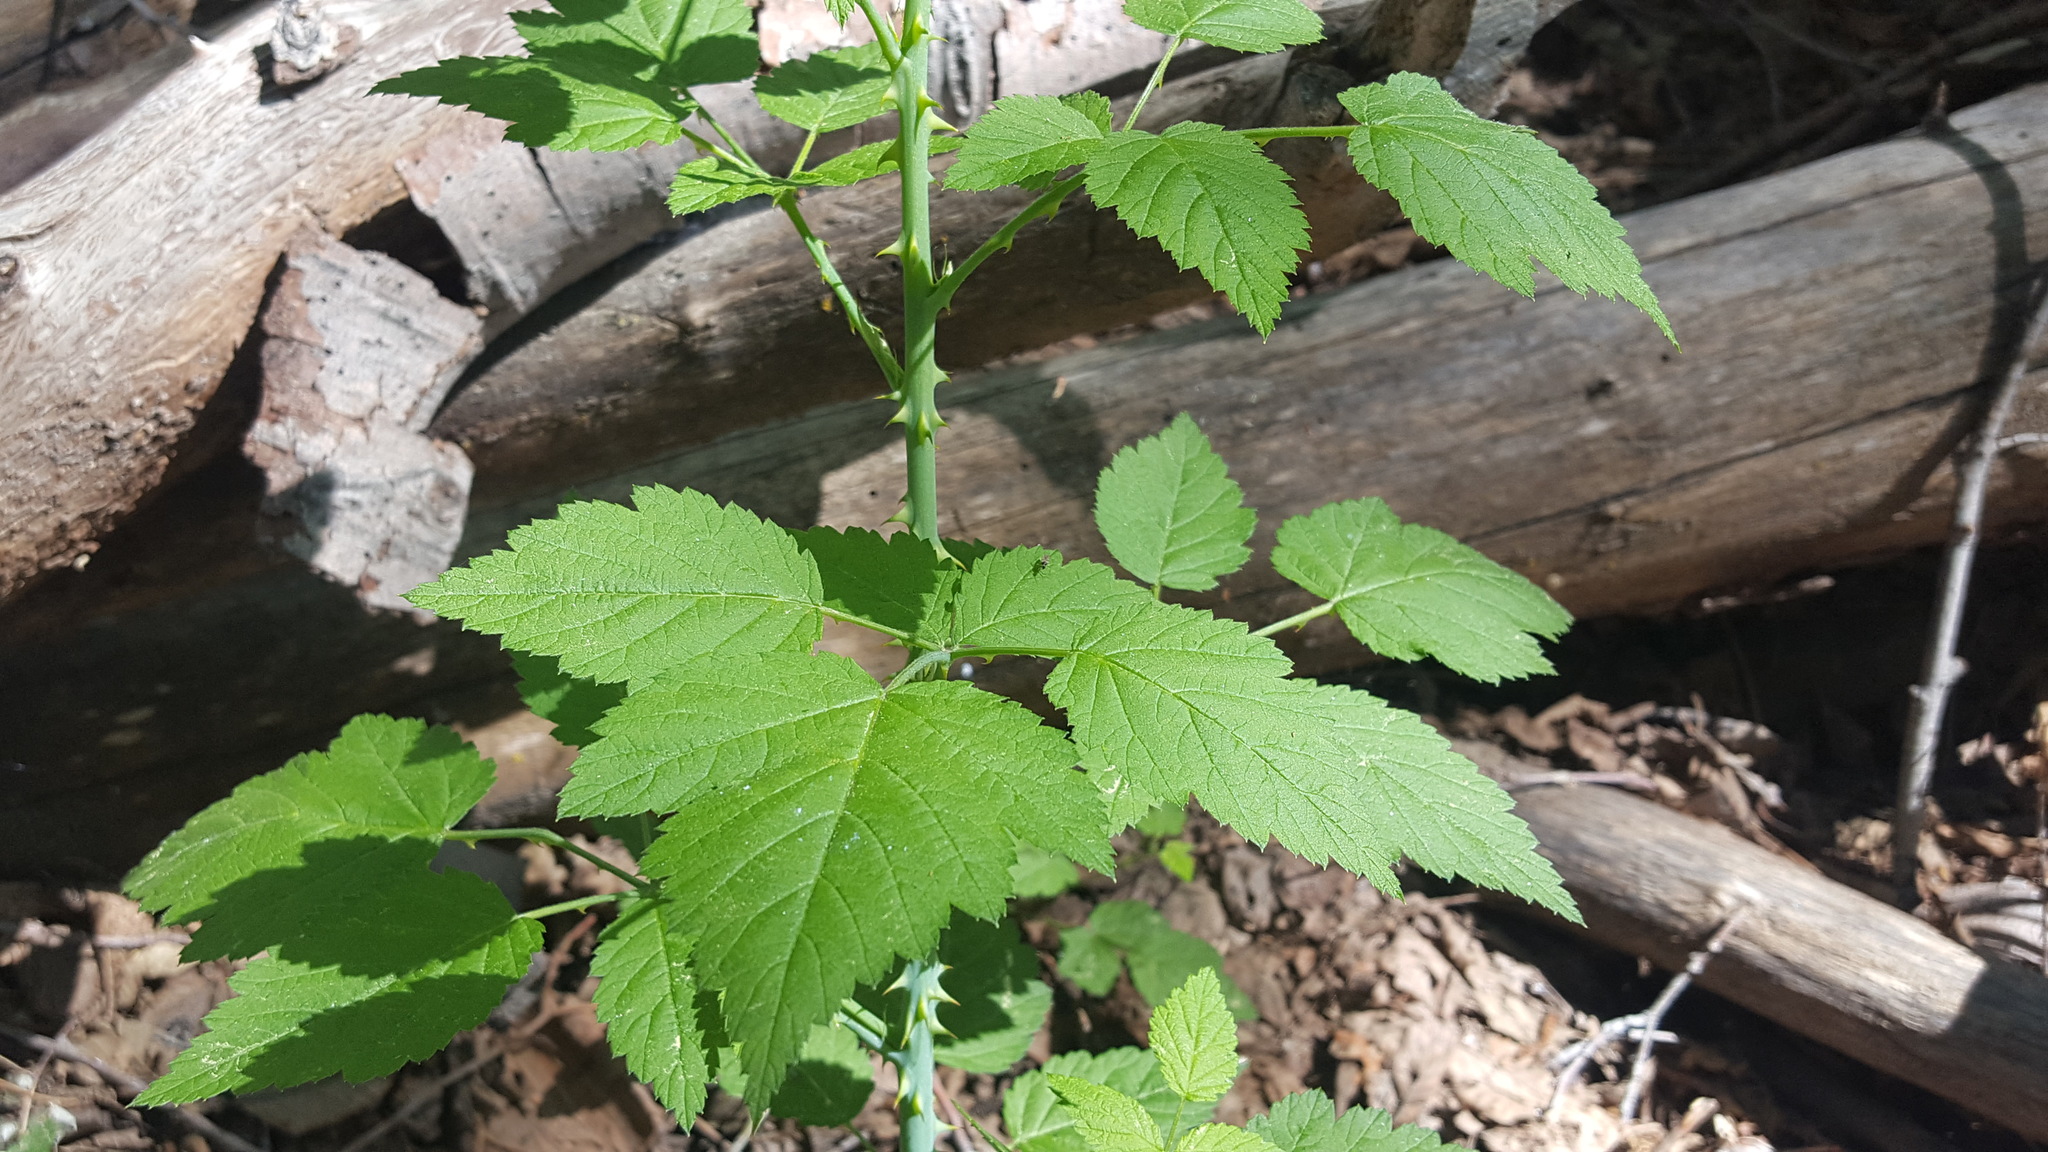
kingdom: Plantae
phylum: Tracheophyta
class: Magnoliopsida
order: Rosales
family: Rosaceae
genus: Rubus
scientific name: Rubus leucodermis
